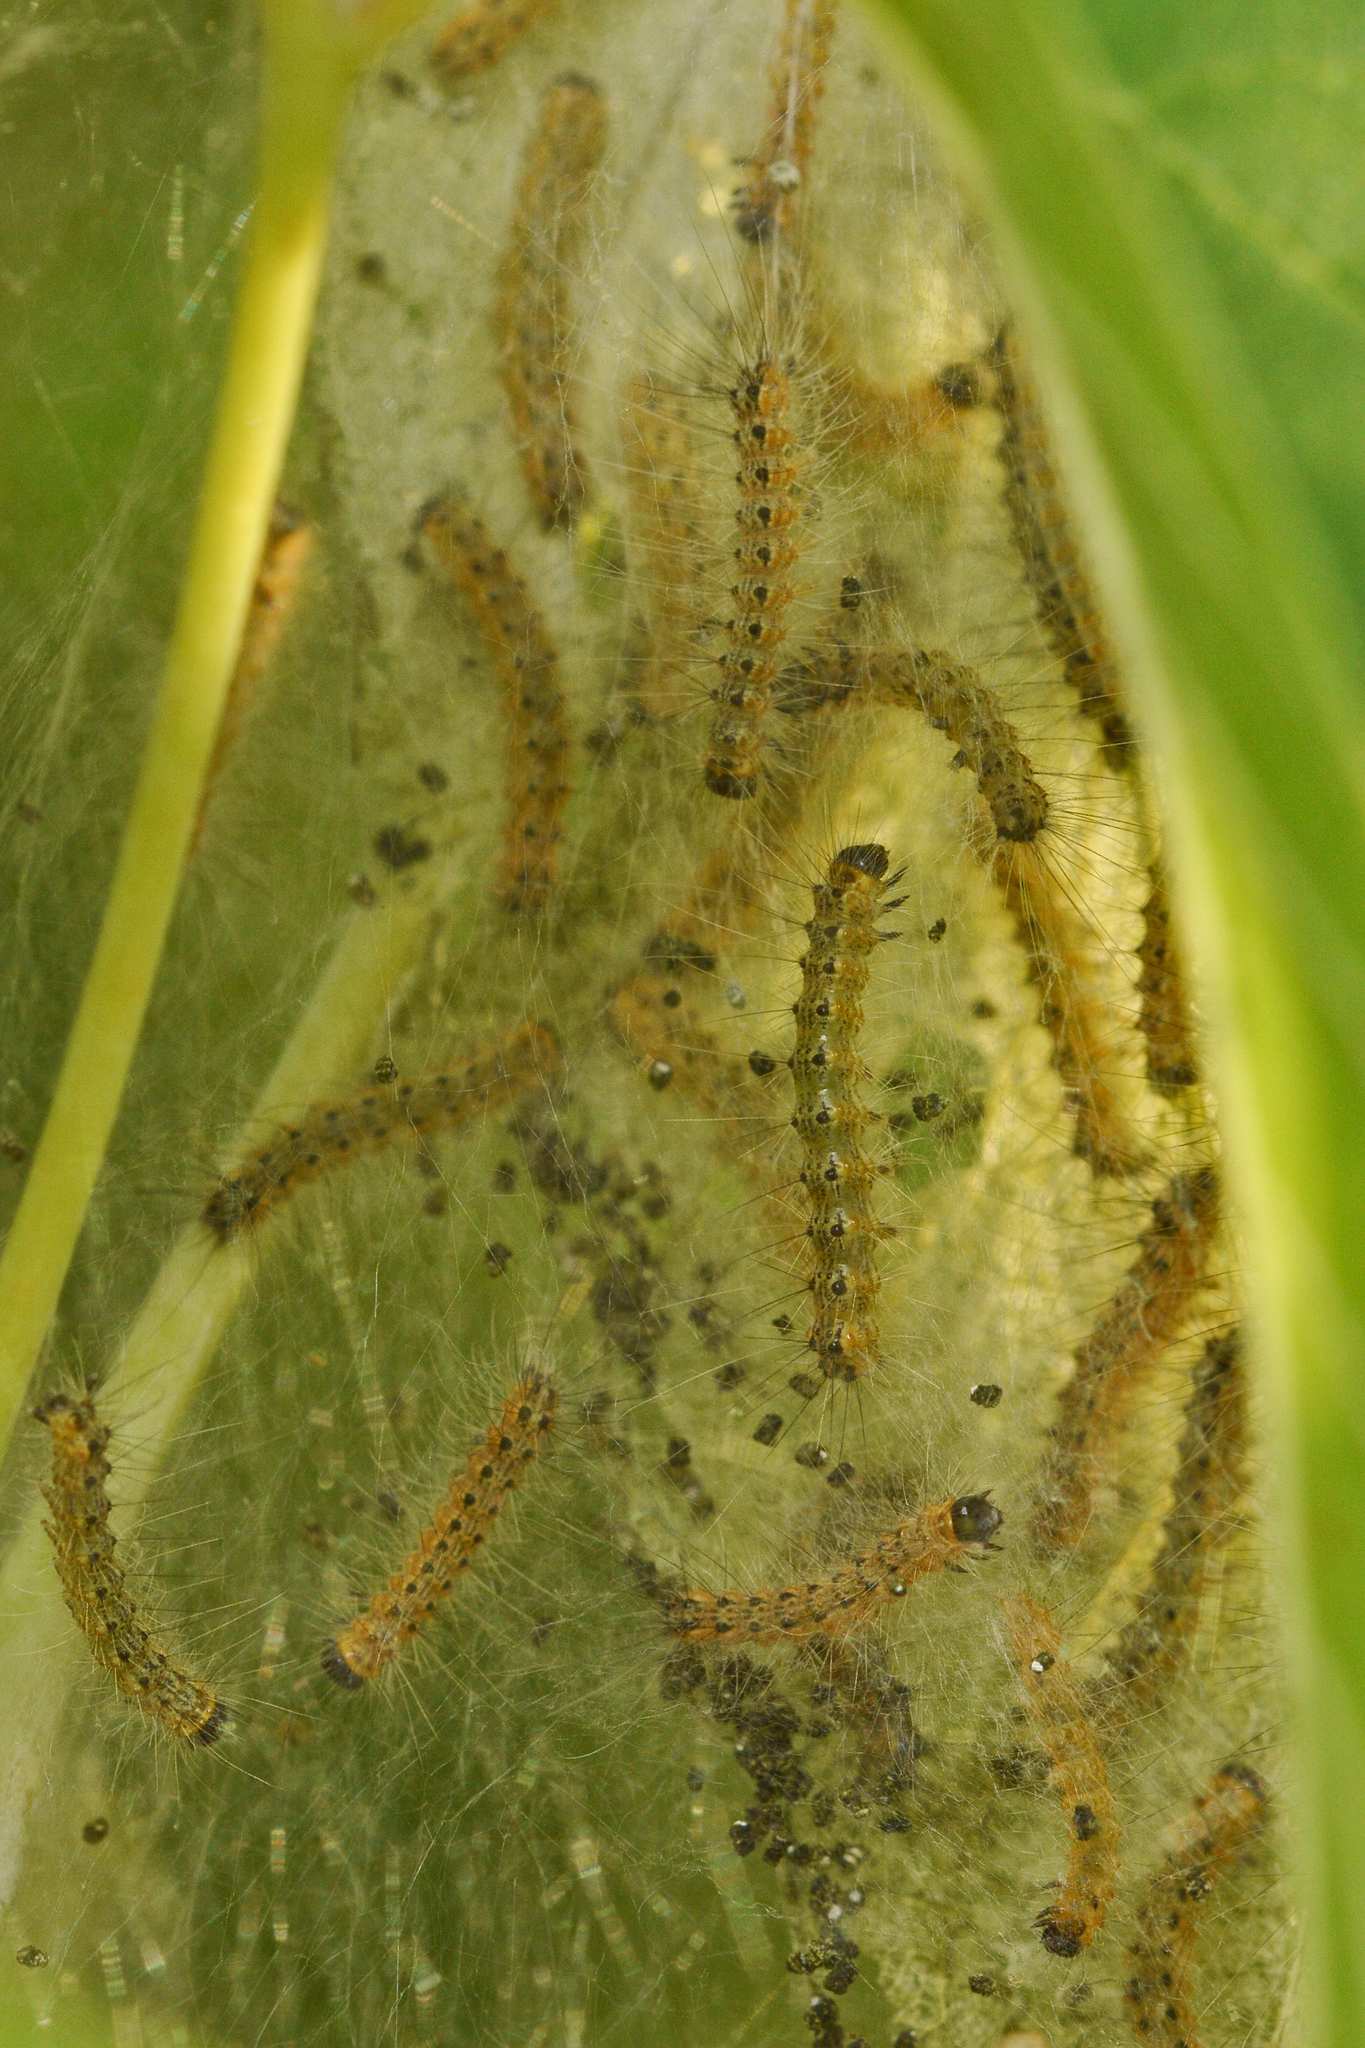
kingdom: Animalia
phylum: Arthropoda
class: Insecta
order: Lepidoptera
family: Erebidae
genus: Hyphantria
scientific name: Hyphantria cunea
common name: American white moth
